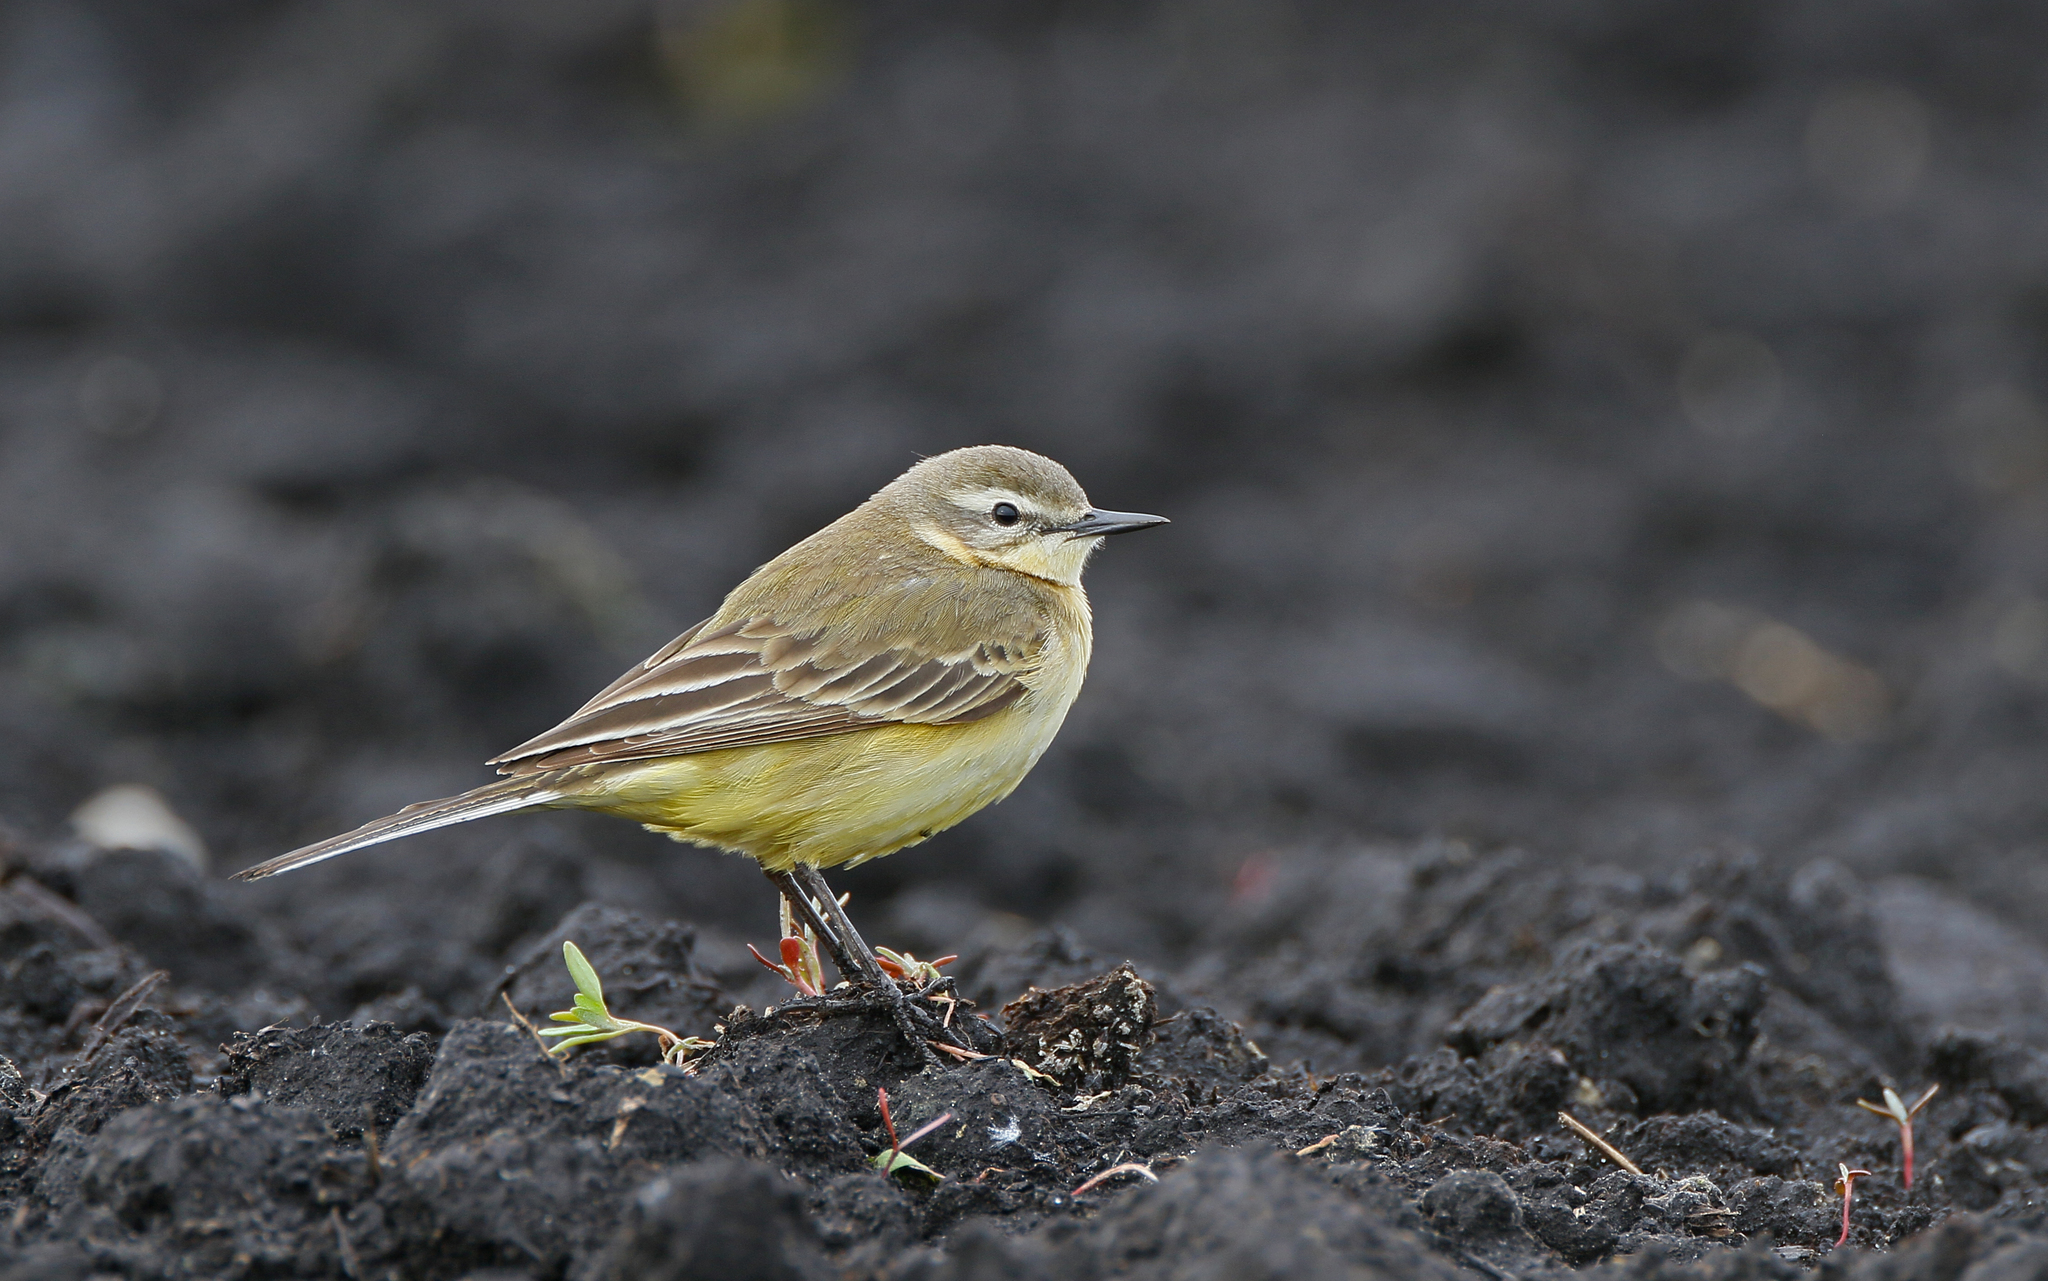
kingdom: Animalia
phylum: Chordata
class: Aves
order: Passeriformes
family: Motacillidae
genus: Motacilla
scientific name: Motacilla flava
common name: Western yellow wagtail
